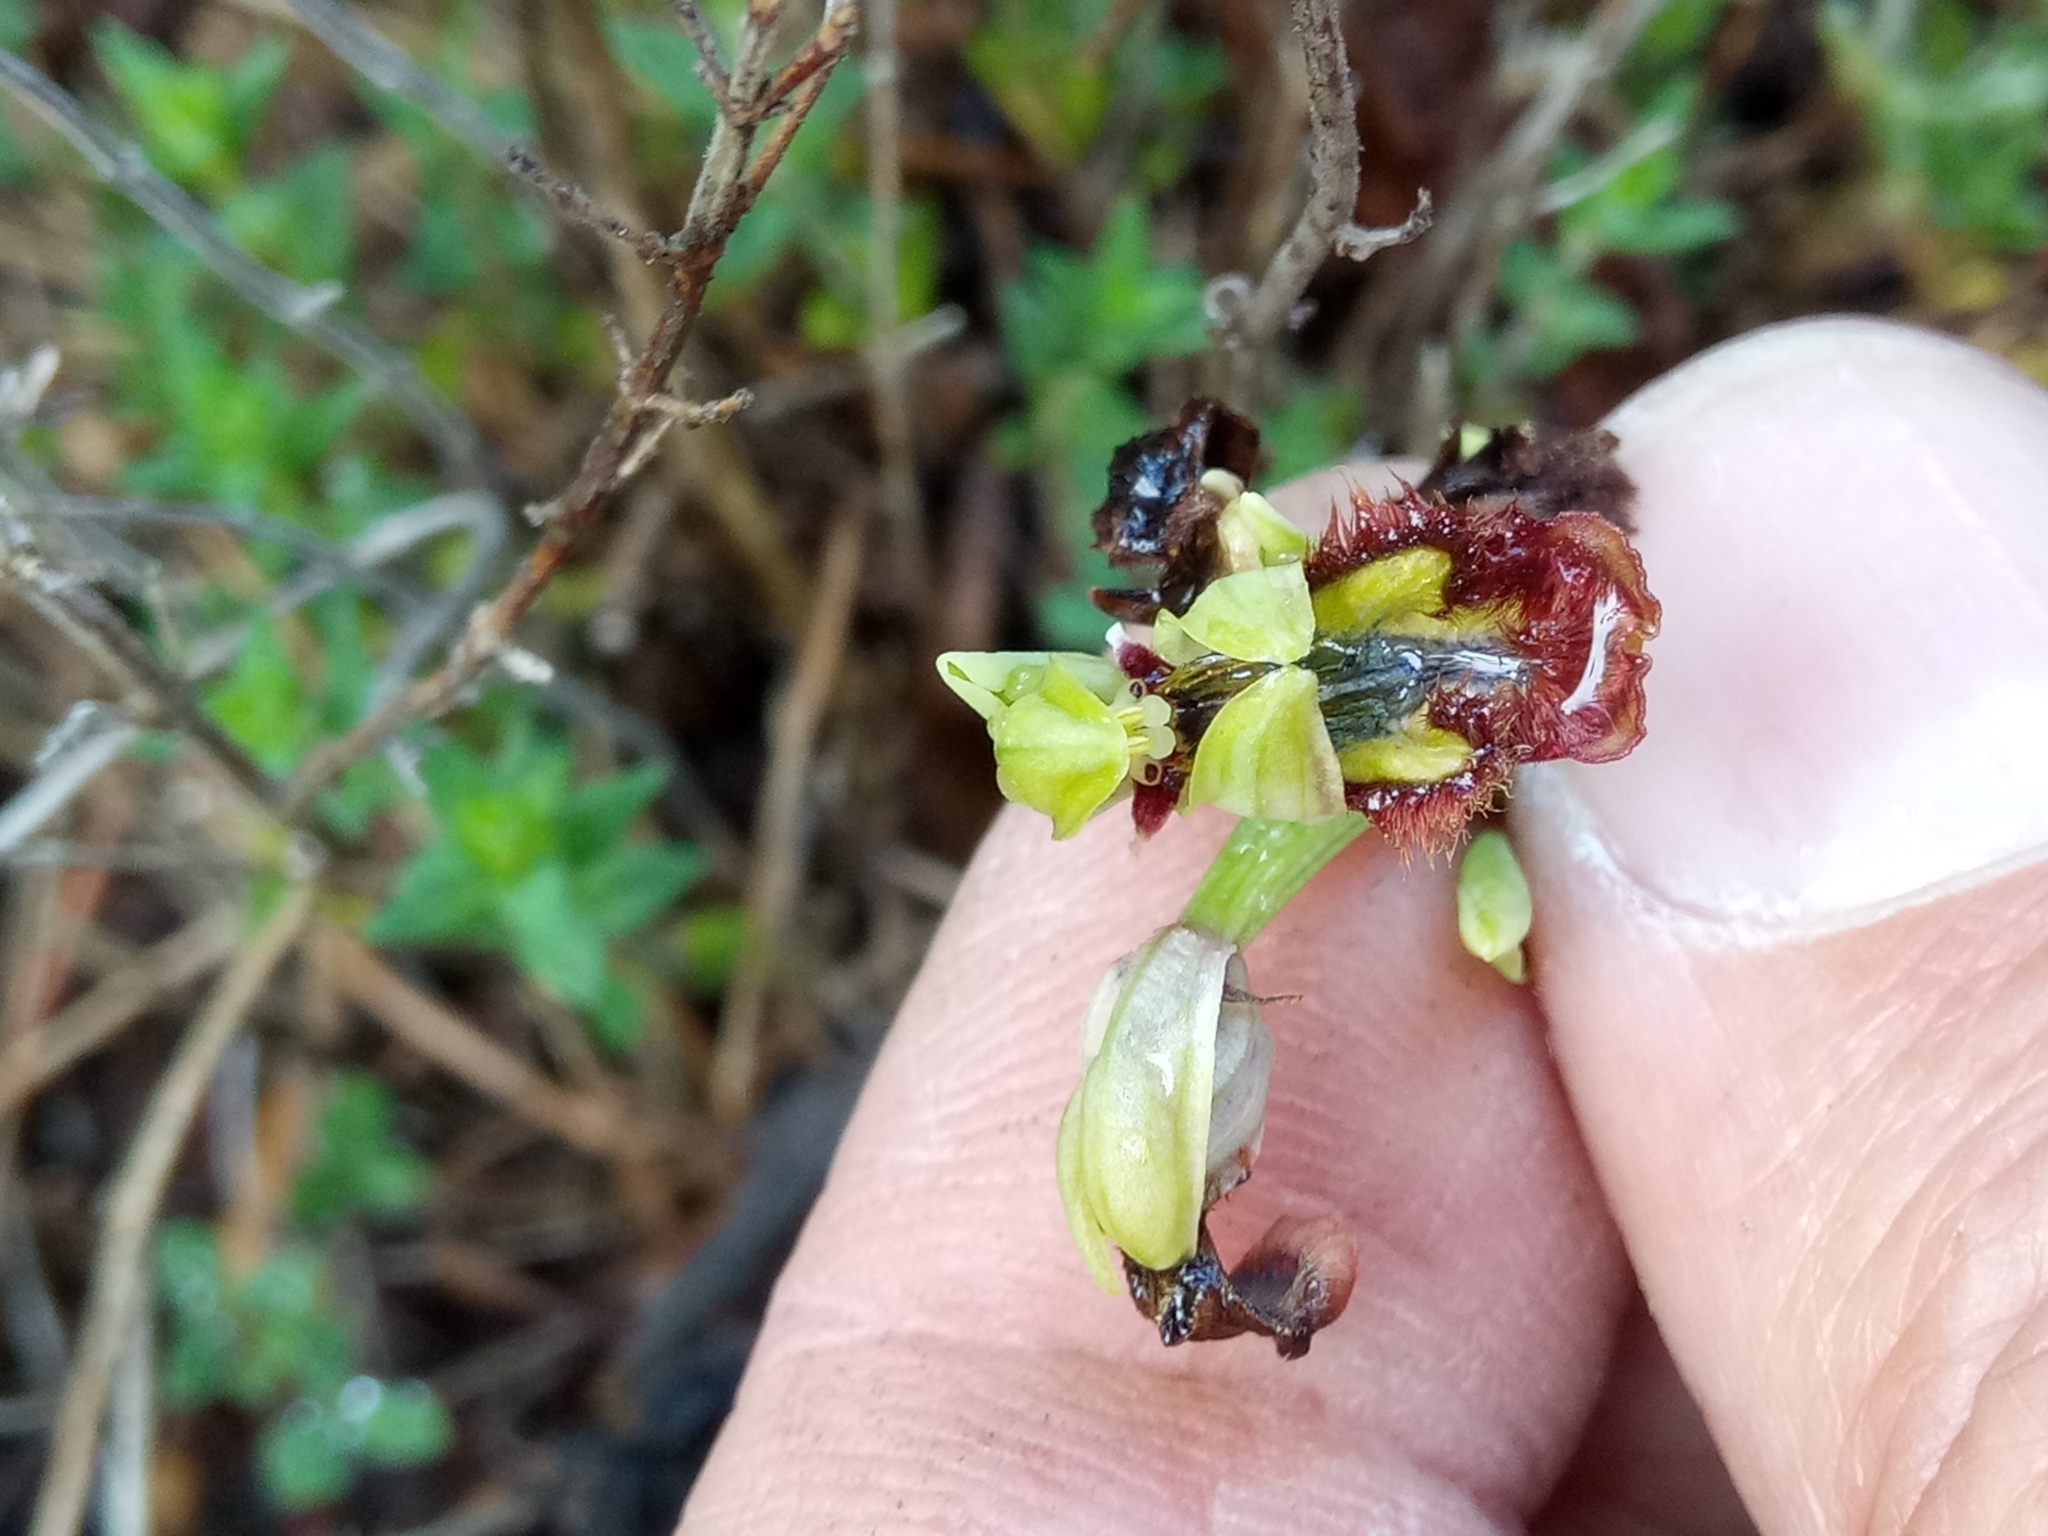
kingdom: Plantae
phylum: Tracheophyta
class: Liliopsida
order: Asparagales
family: Orchidaceae
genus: Ophrys
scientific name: Ophrys speculum
